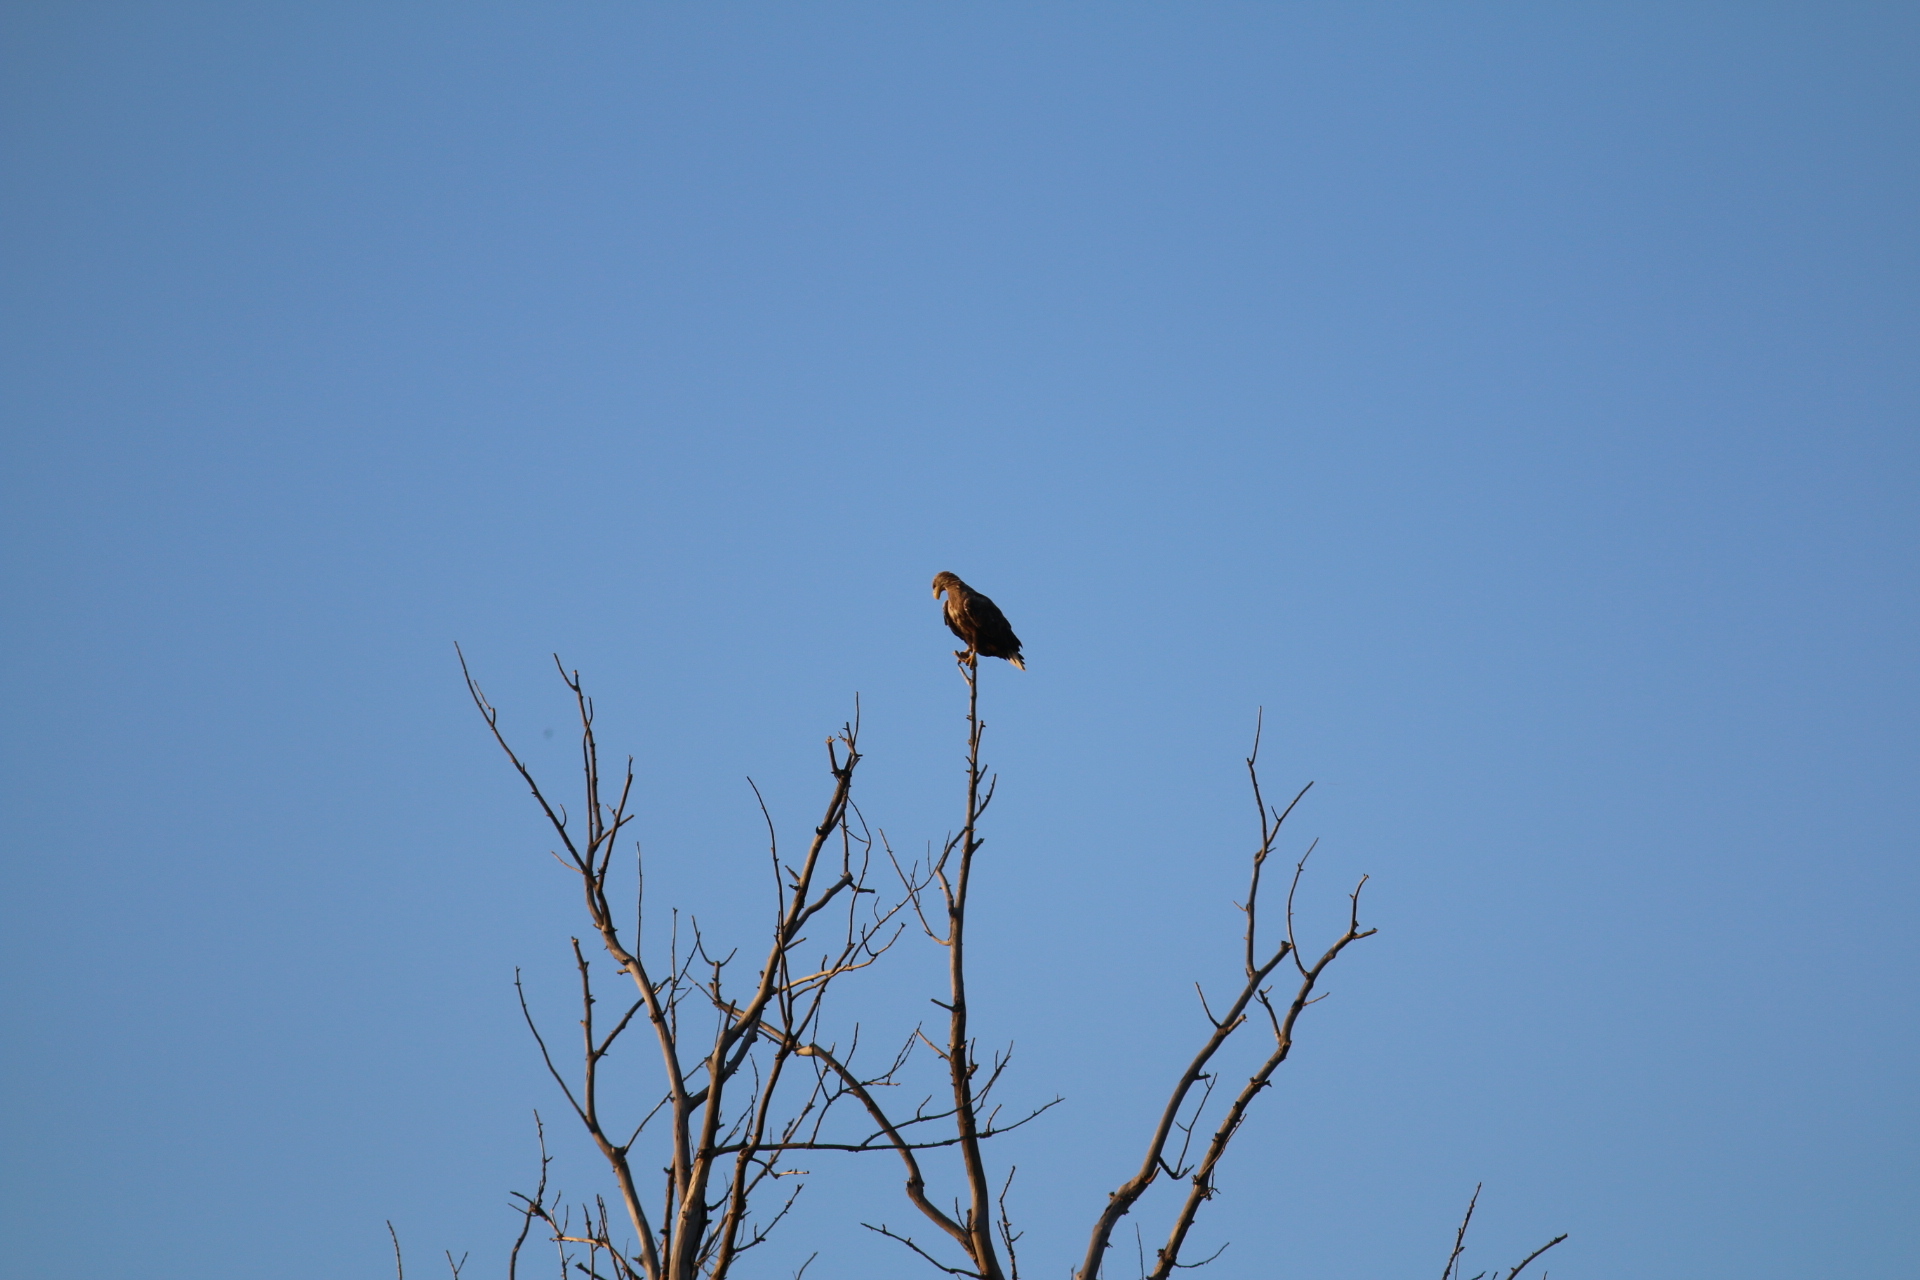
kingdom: Animalia
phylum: Chordata
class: Aves
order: Accipitriformes
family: Accipitridae
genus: Haliaeetus
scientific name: Haliaeetus albicilla
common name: White-tailed eagle
